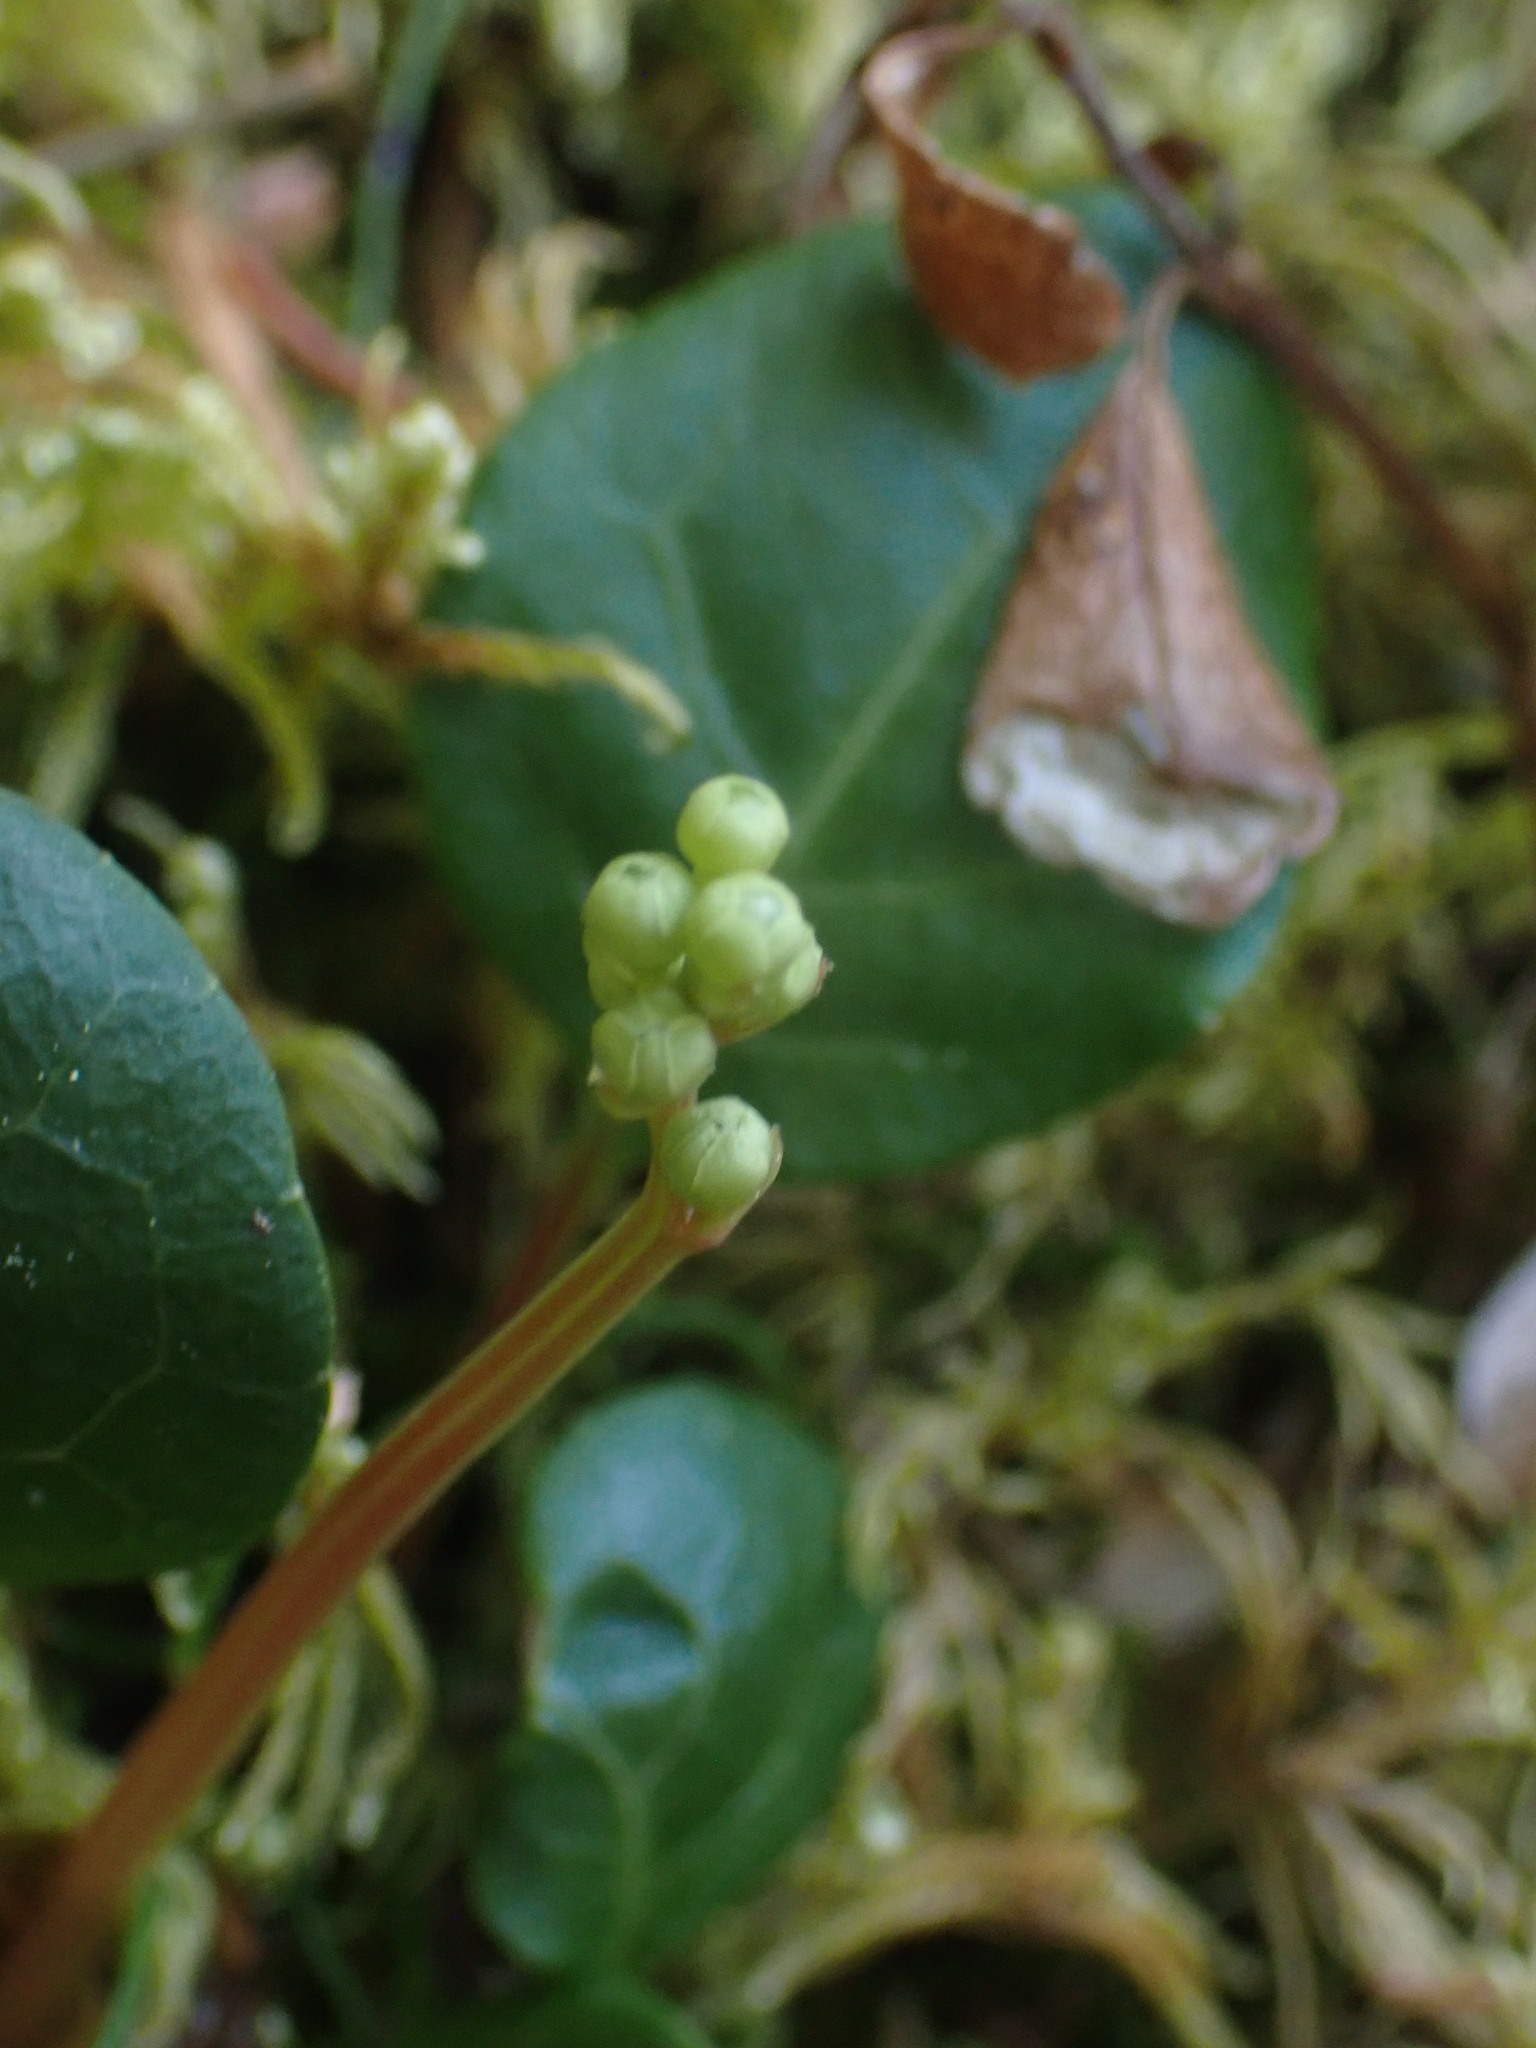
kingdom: Plantae
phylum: Tracheophyta
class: Magnoliopsida
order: Ericales
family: Ericaceae
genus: Pyrola
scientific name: Pyrola chlorantha
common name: Green wintergreen
